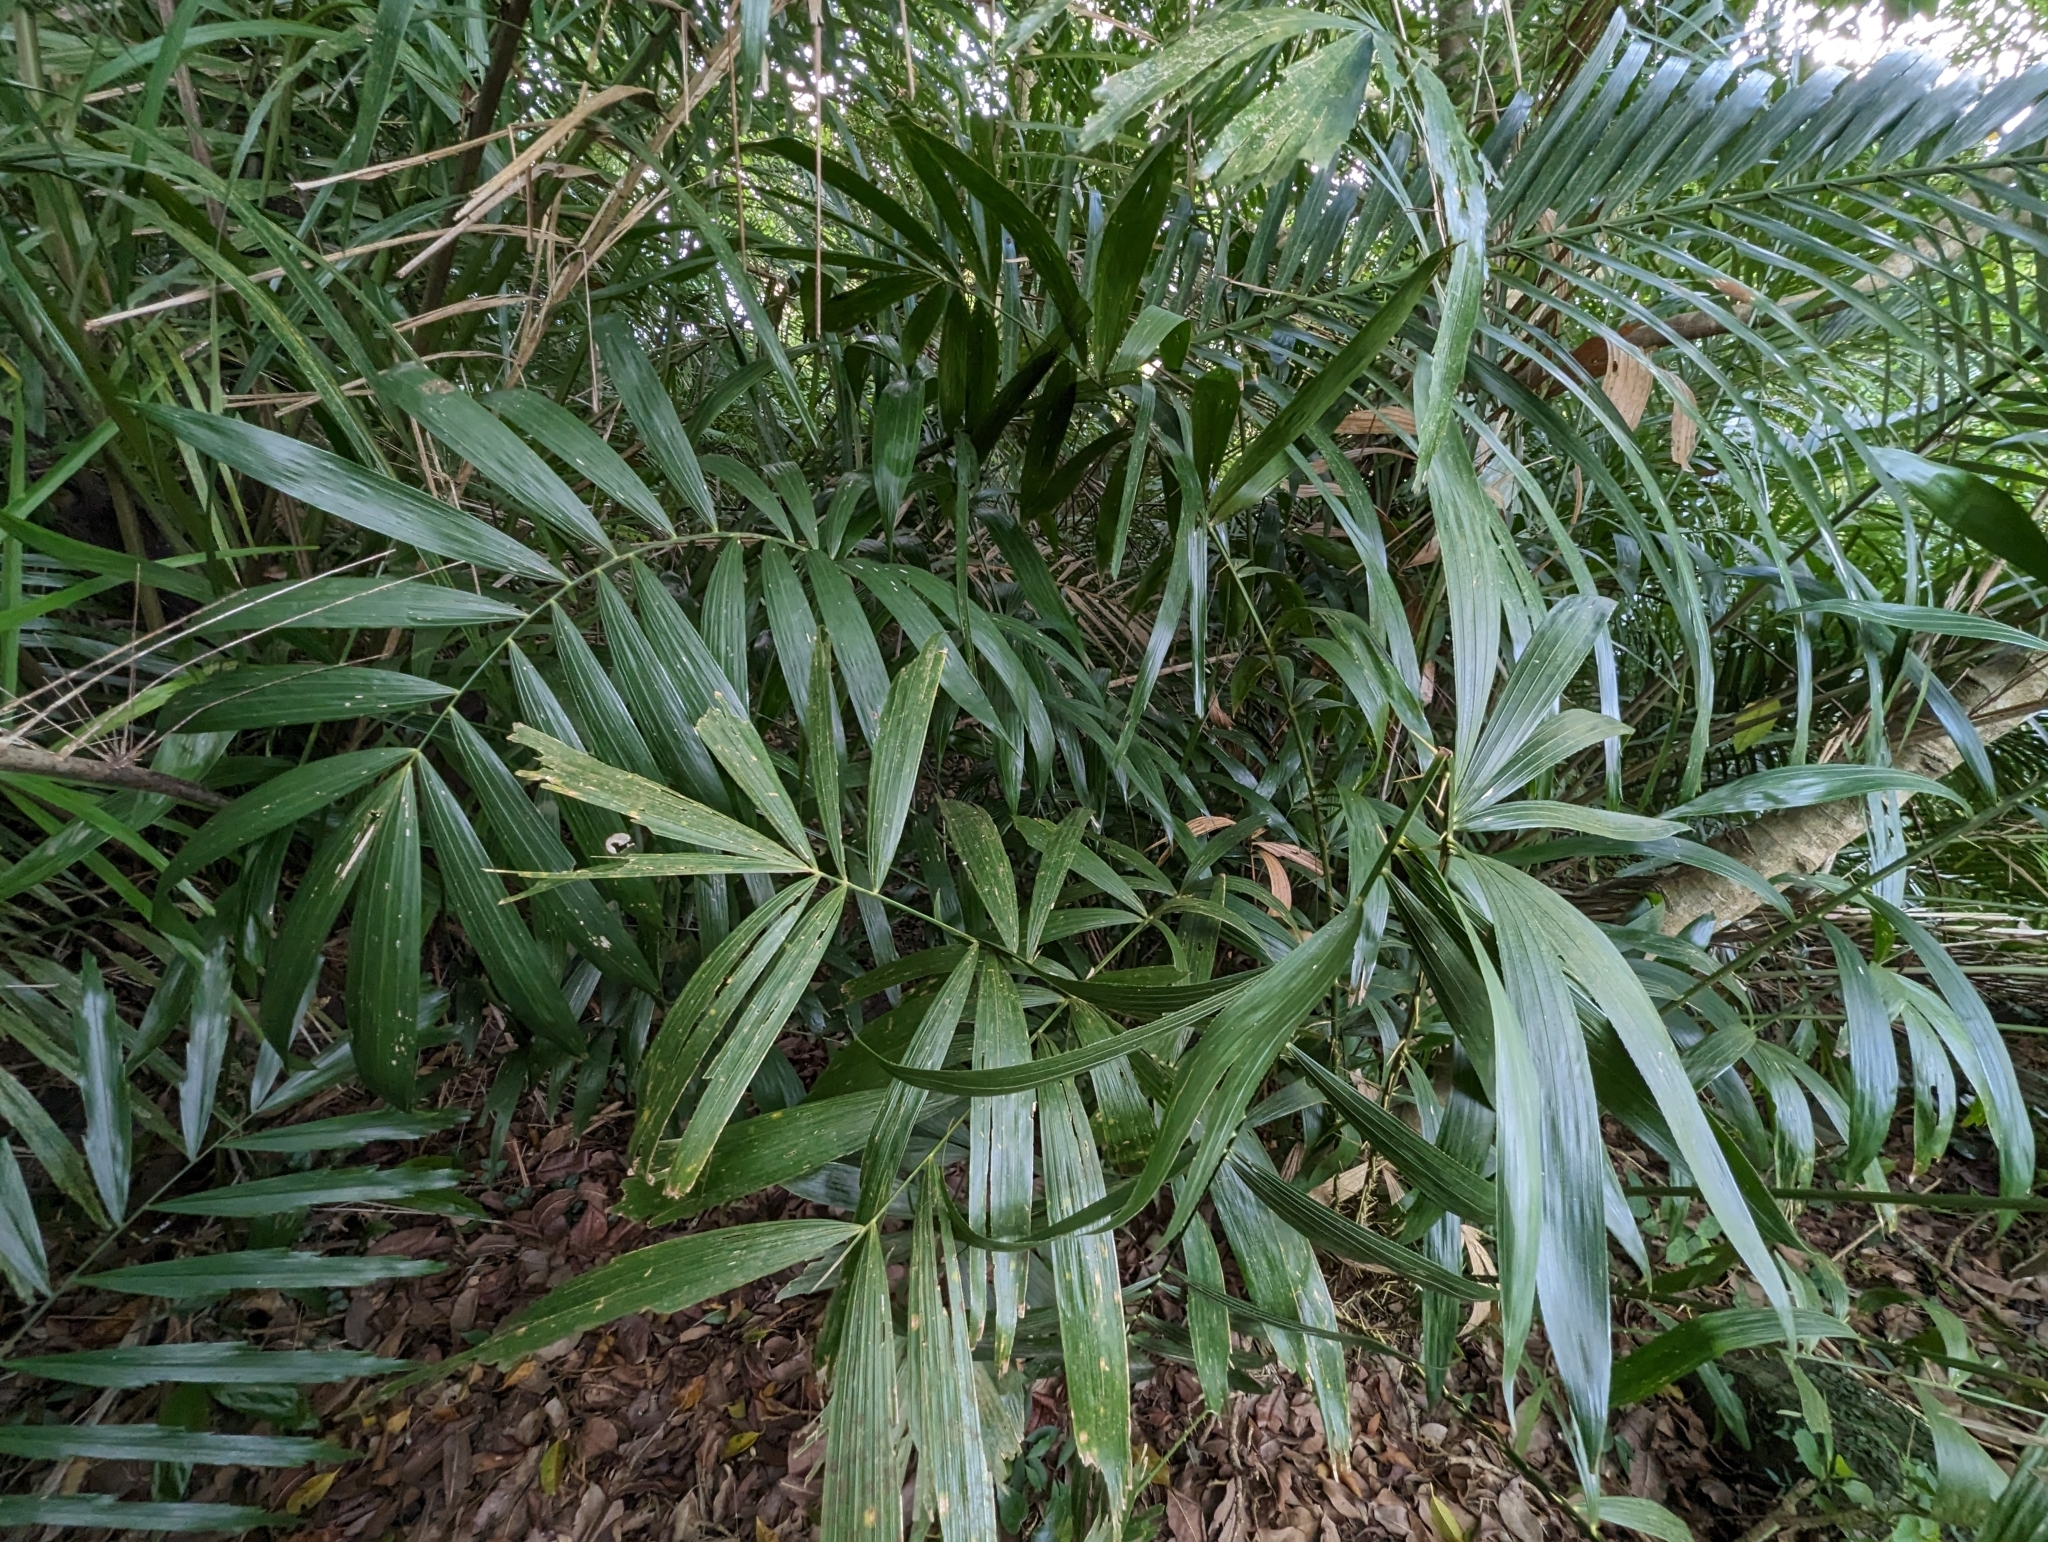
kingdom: Plantae
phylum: Tracheophyta
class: Liliopsida
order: Arecales
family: Arecaceae
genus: Arenga
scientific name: Arenga engleri
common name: Formosan sugar palm
